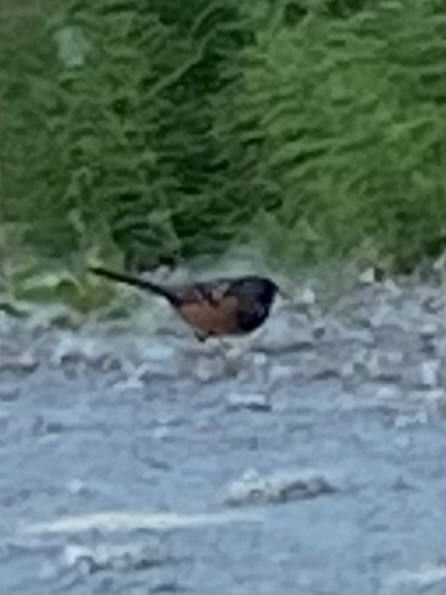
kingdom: Animalia
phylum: Chordata
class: Aves
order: Passeriformes
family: Passerellidae
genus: Pipilo
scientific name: Pipilo maculatus
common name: Spotted towhee
